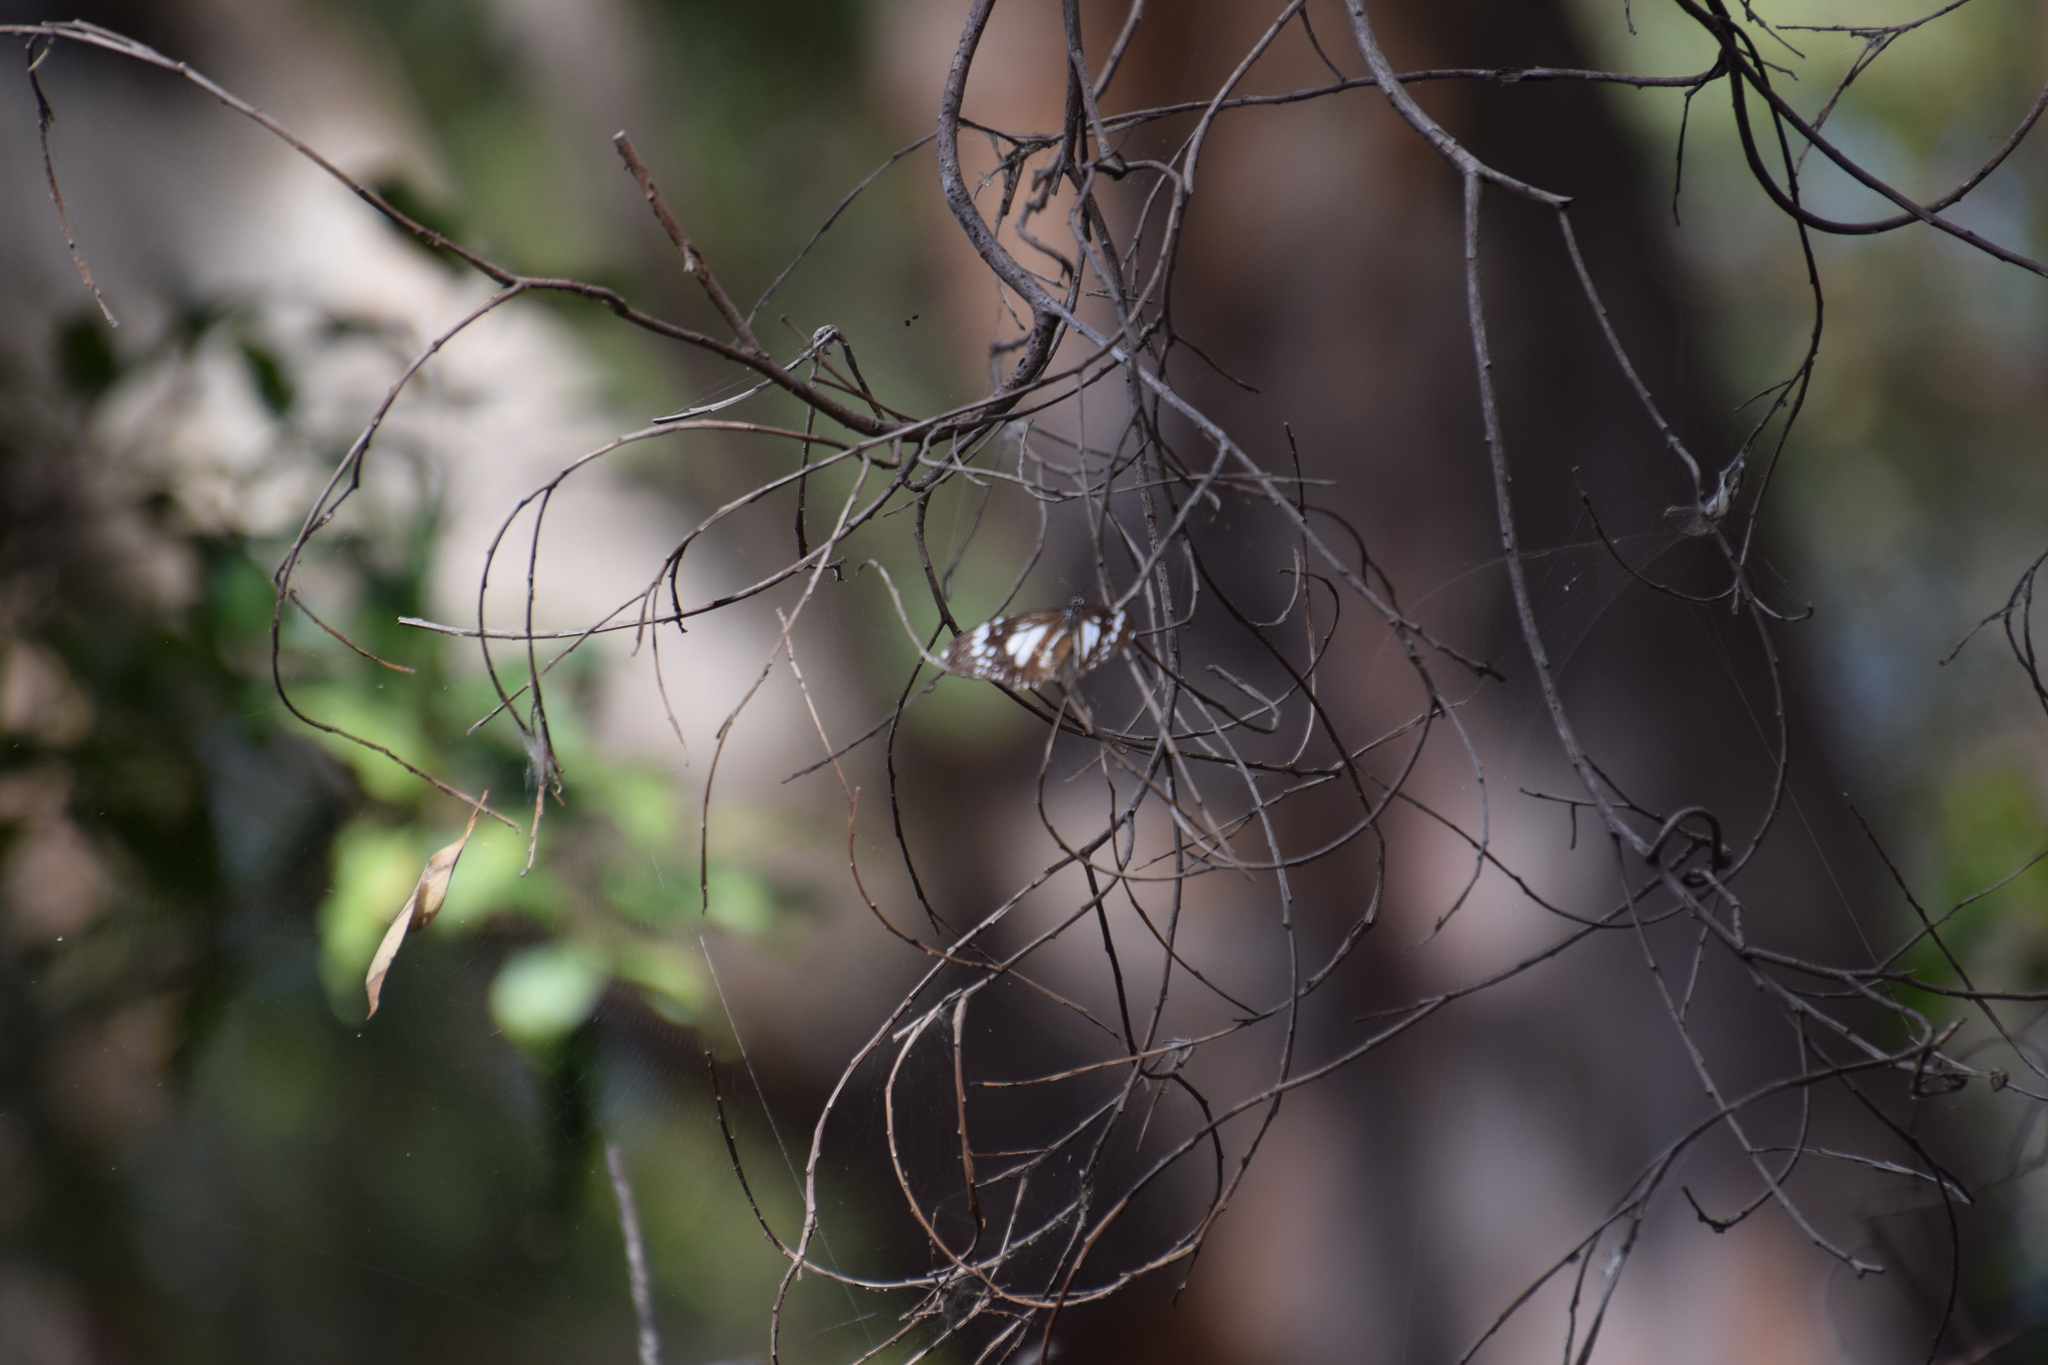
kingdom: Animalia
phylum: Arthropoda
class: Insecta
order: Lepidoptera
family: Nymphalidae
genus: Danaus
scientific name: Danaus affinis
